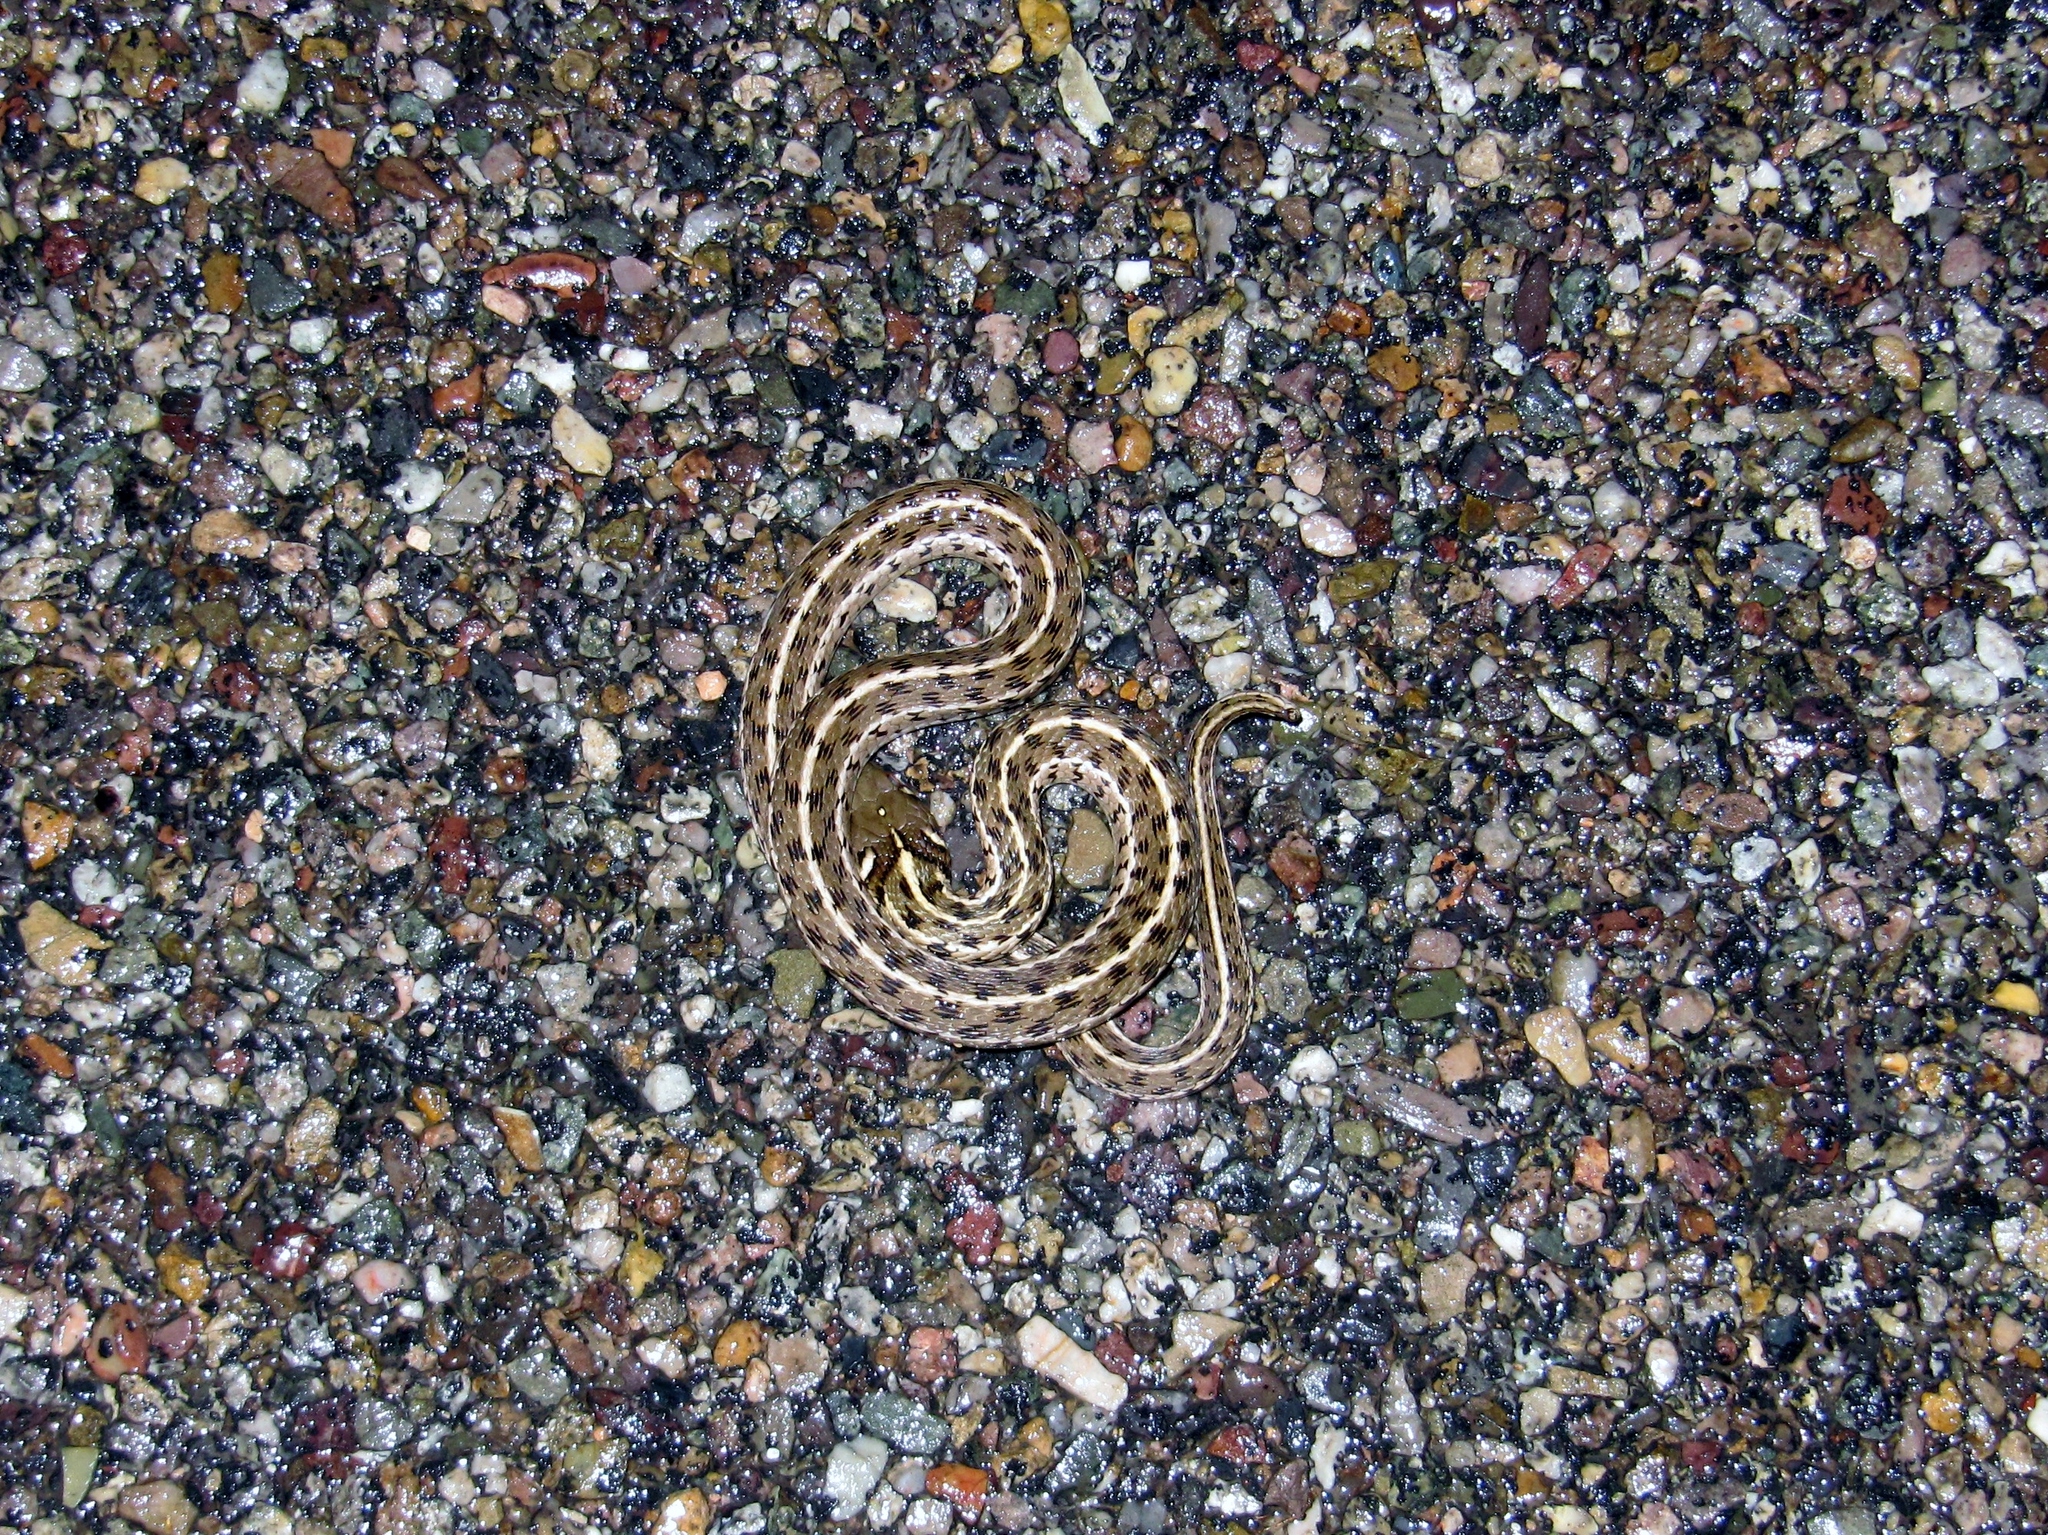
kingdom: Animalia
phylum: Chordata
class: Squamata
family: Colubridae
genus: Thamnophis
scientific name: Thamnophis marcianus
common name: Checkered garter snake
